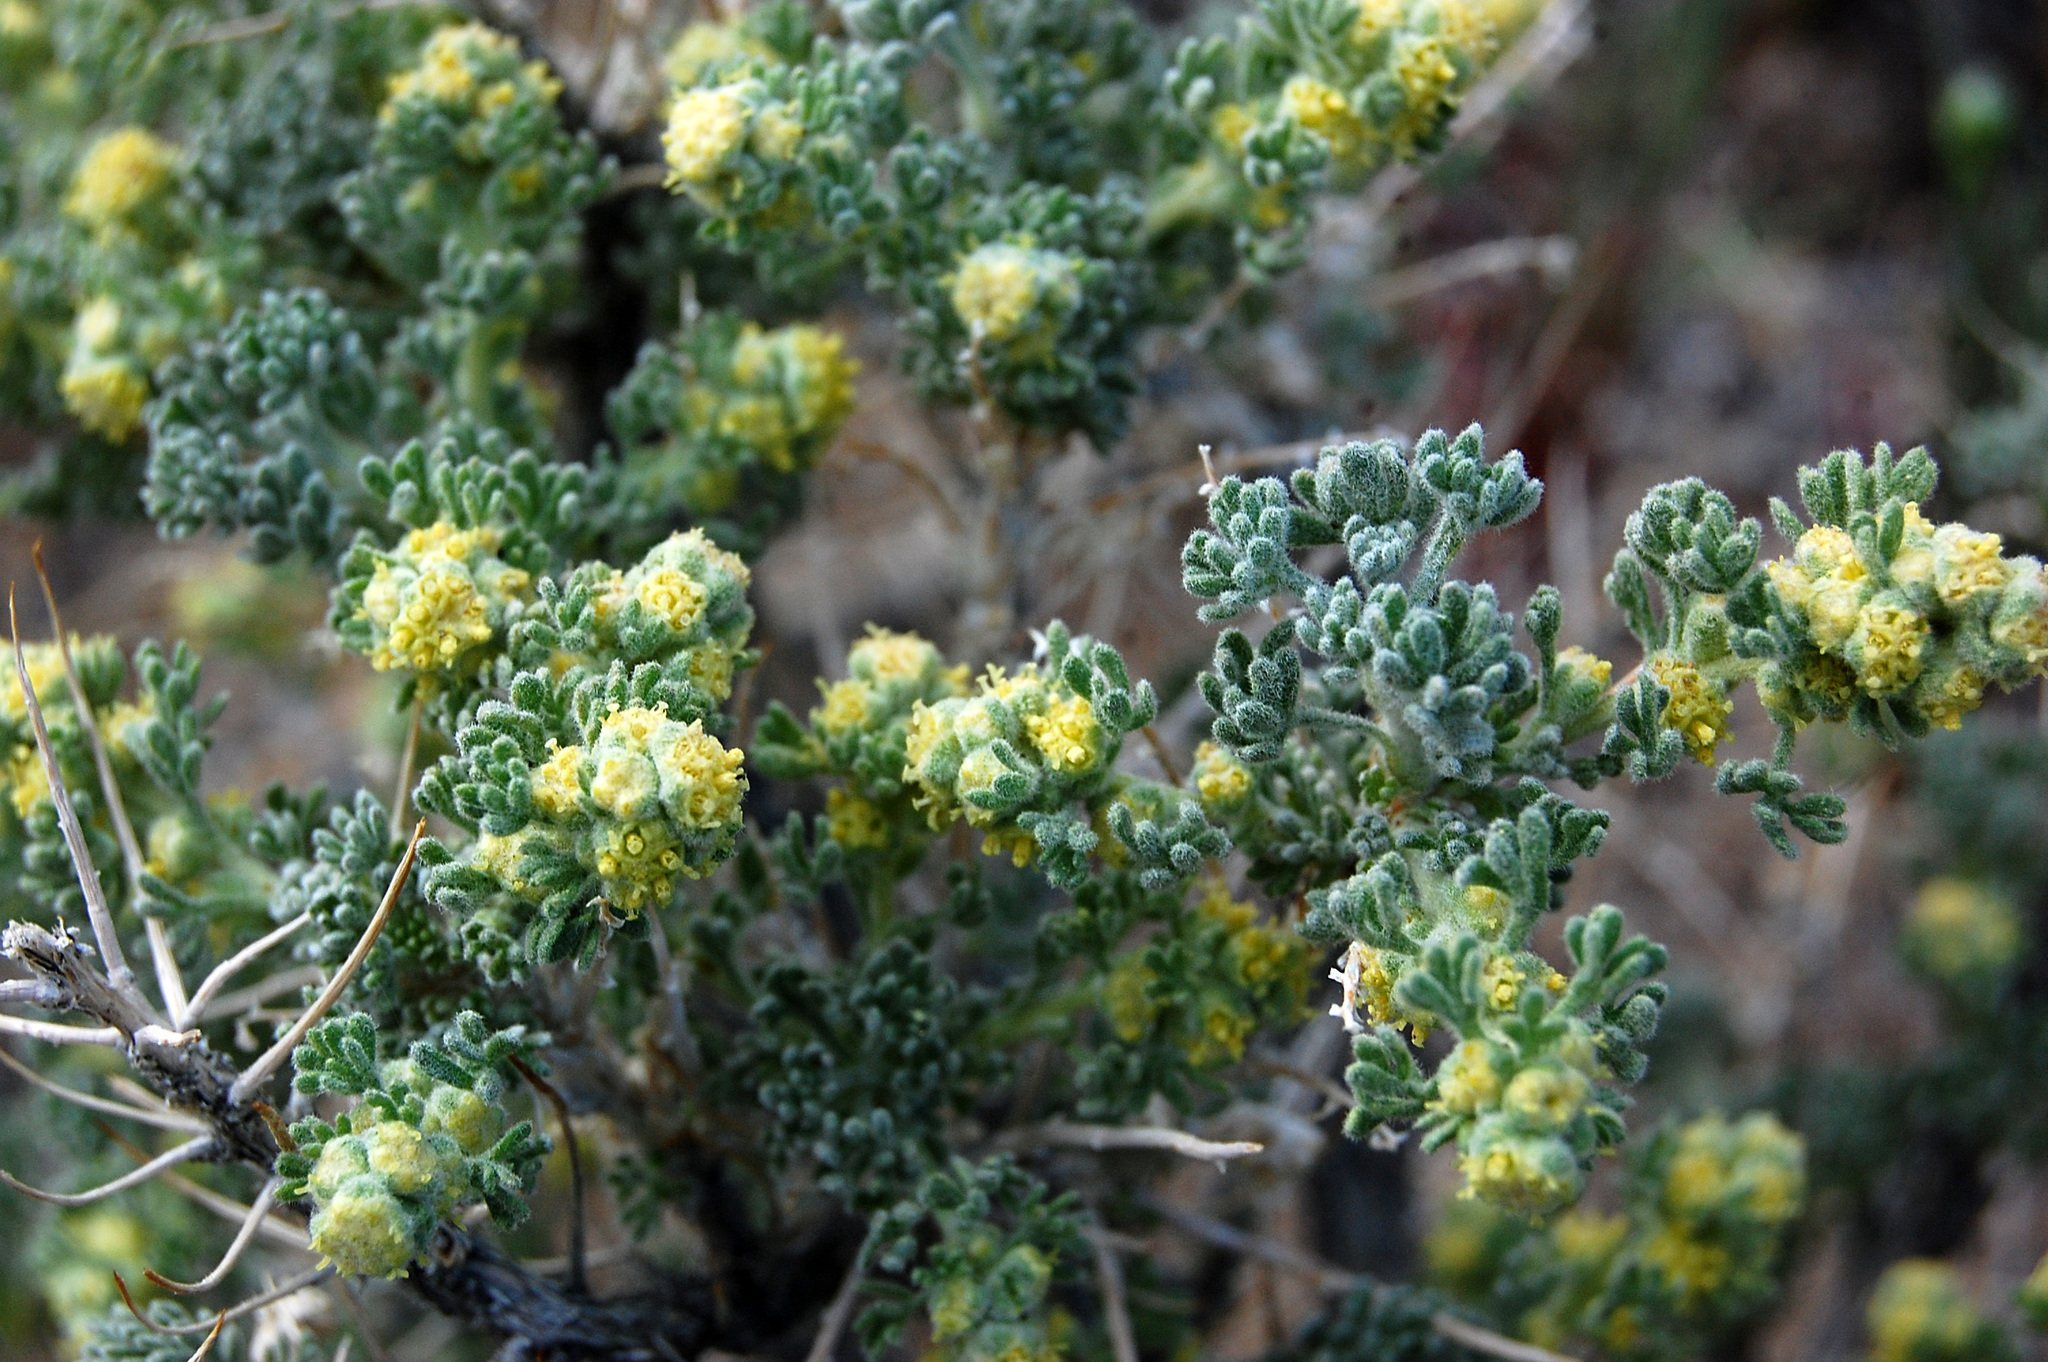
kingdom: Plantae
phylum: Tracheophyta
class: Magnoliopsida
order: Asterales
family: Asteraceae
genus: Artemisia
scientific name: Artemisia spinescens
